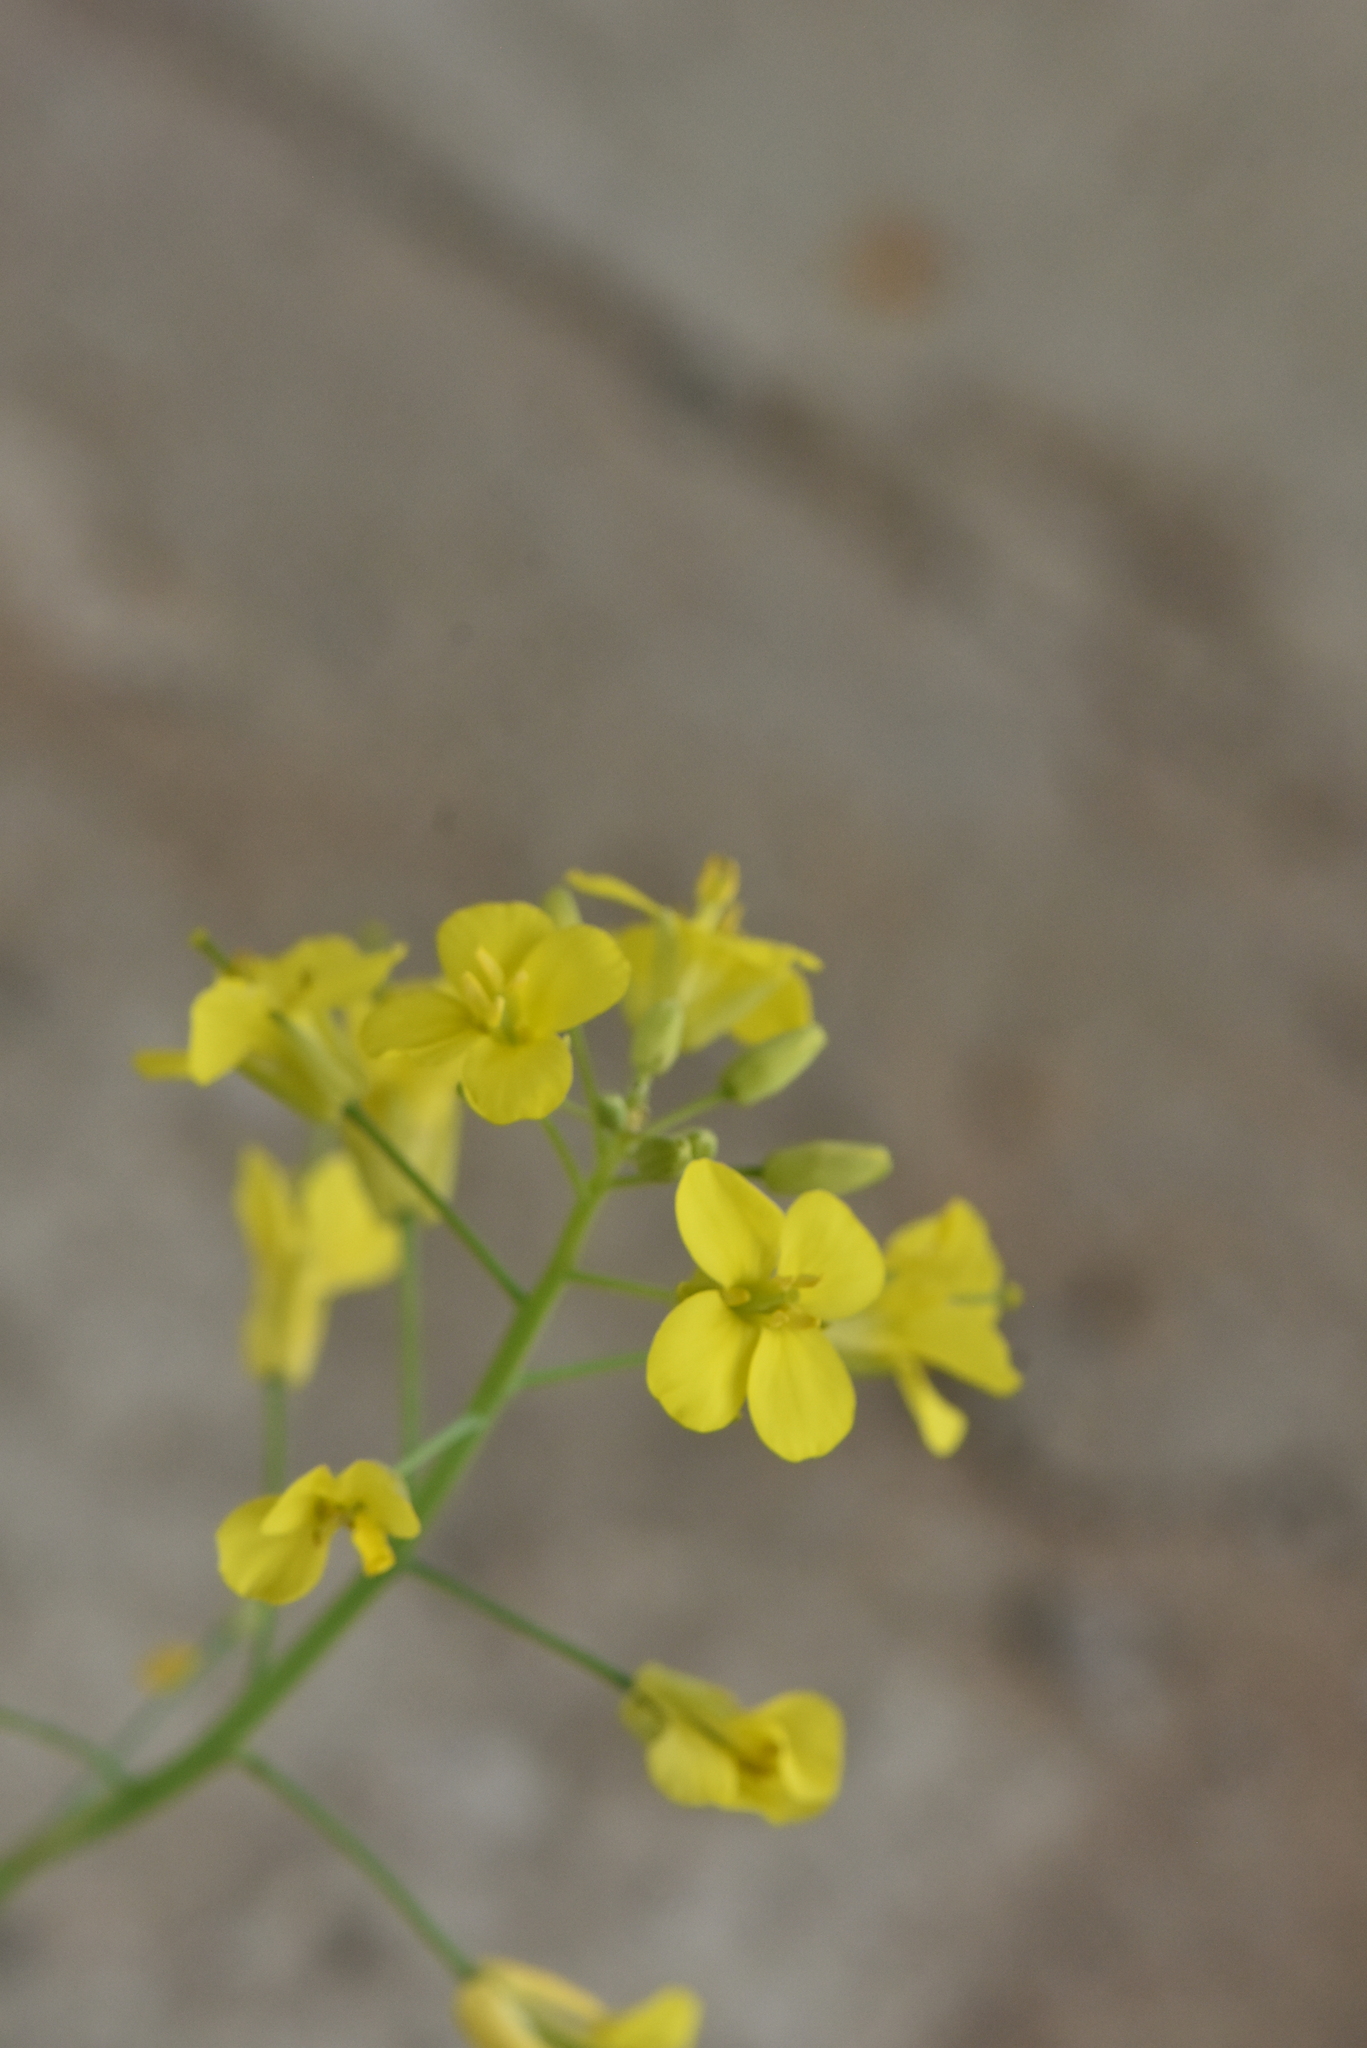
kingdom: Plantae
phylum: Tracheophyta
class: Magnoliopsida
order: Brassicales
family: Brassicaceae
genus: Brassica
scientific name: Brassica napus
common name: Rape
